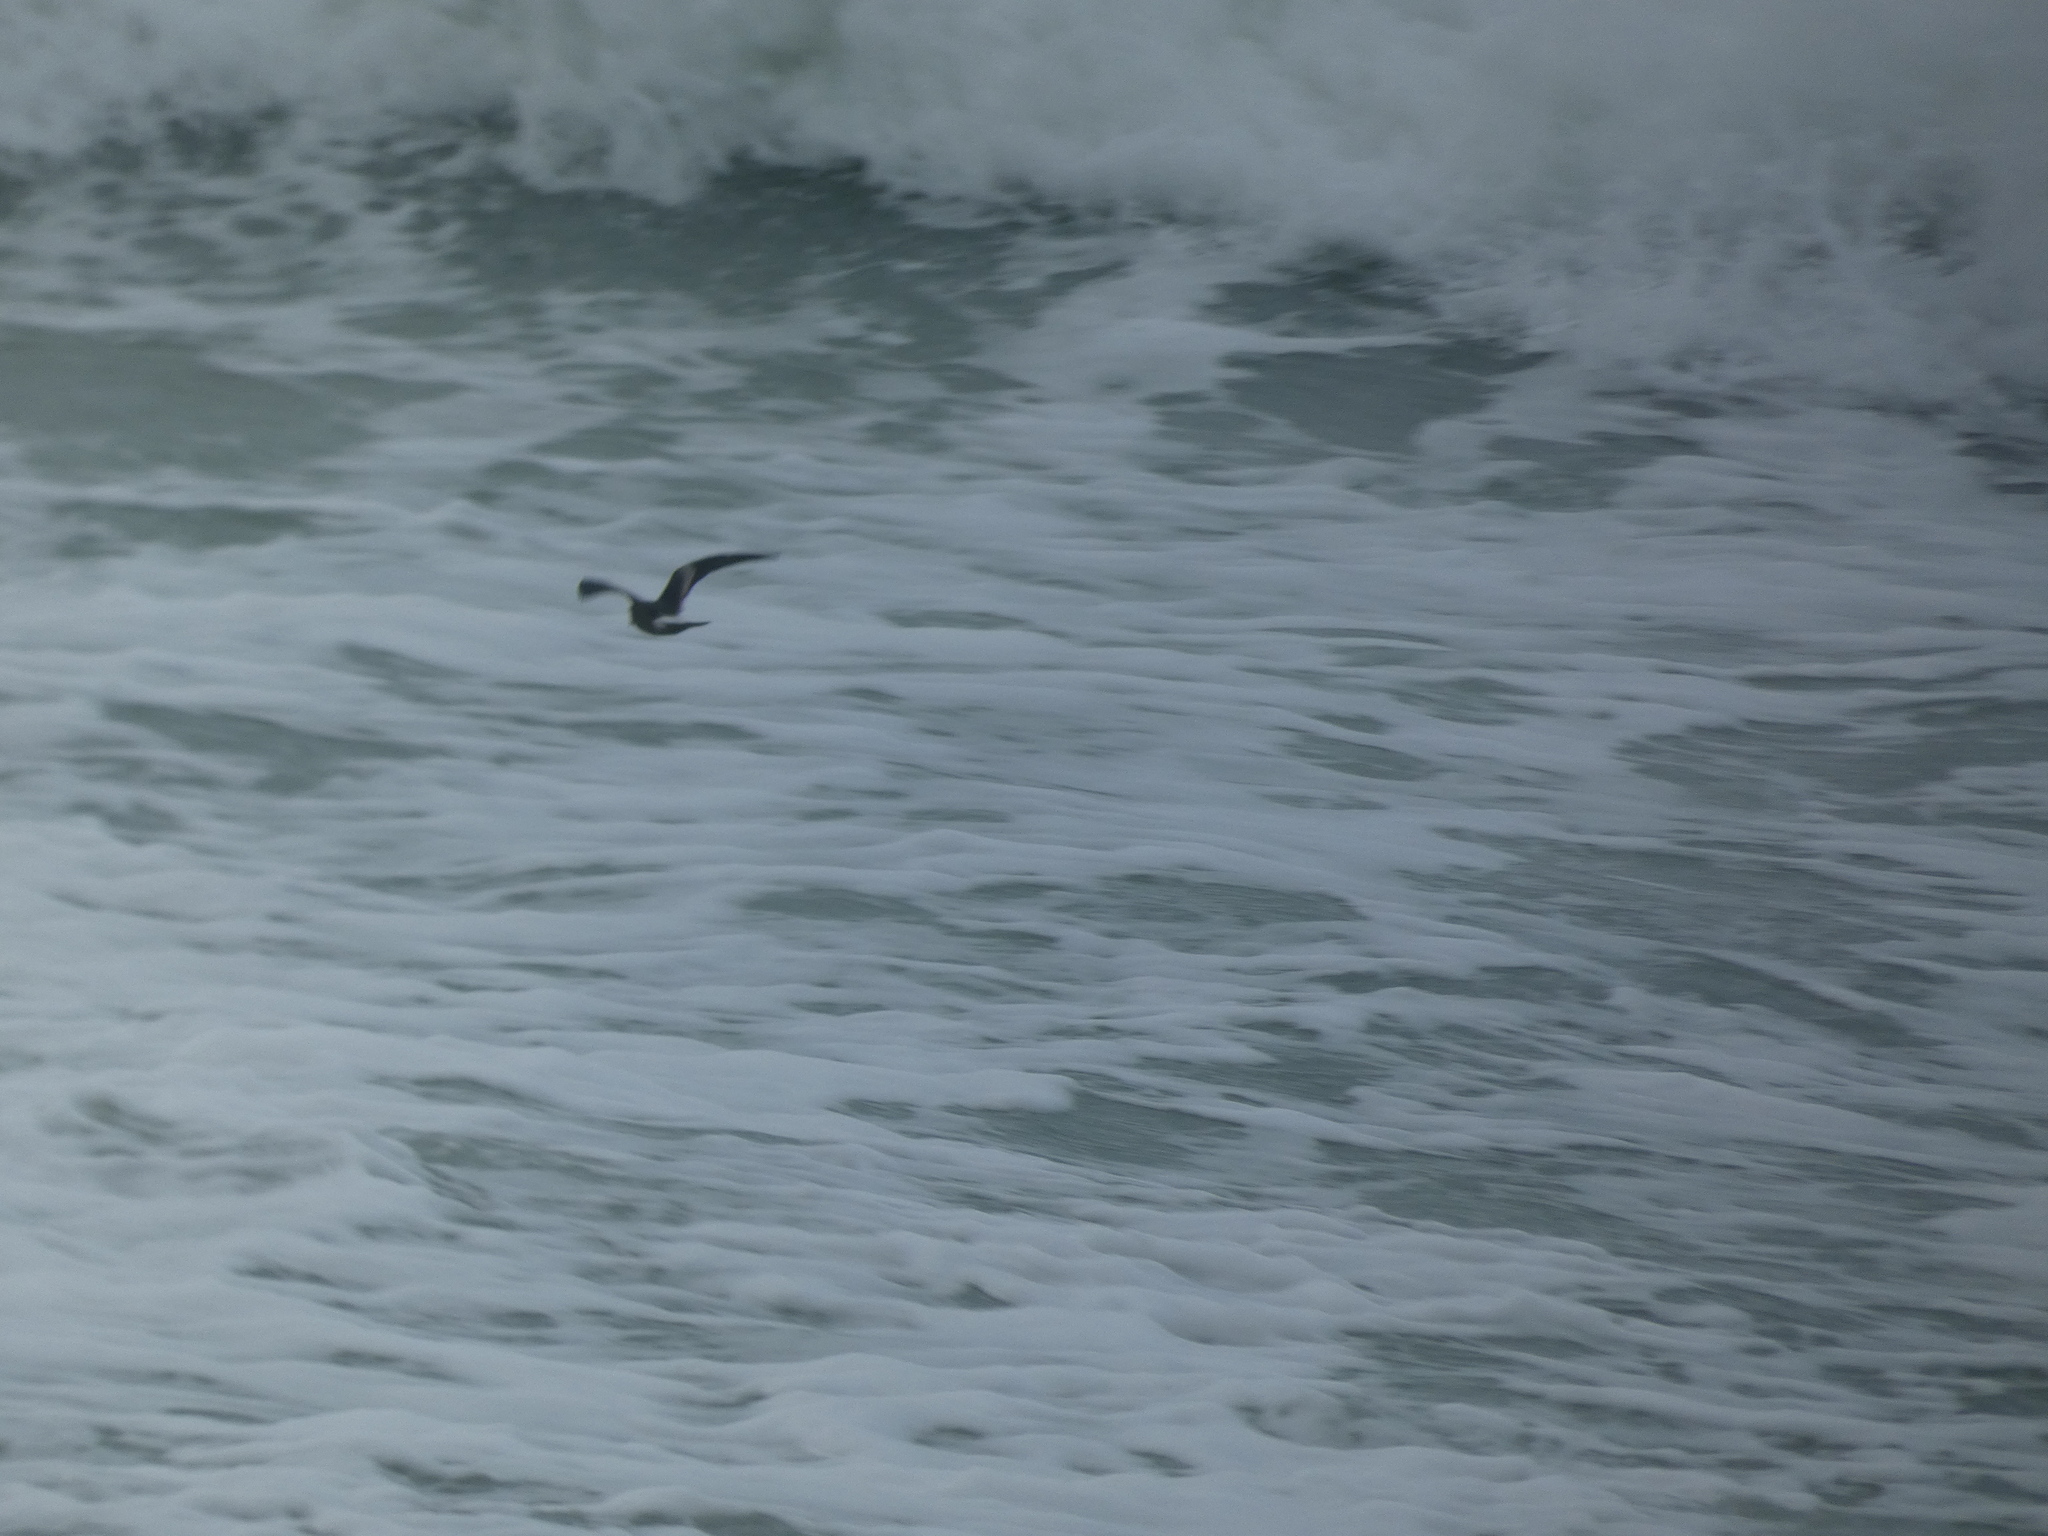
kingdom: Animalia
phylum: Chordata
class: Aves
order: Procellariiformes
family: Hydrobatidae
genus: Oceanodroma
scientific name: Oceanodroma leucorhoa
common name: Leach's storm-petrel
